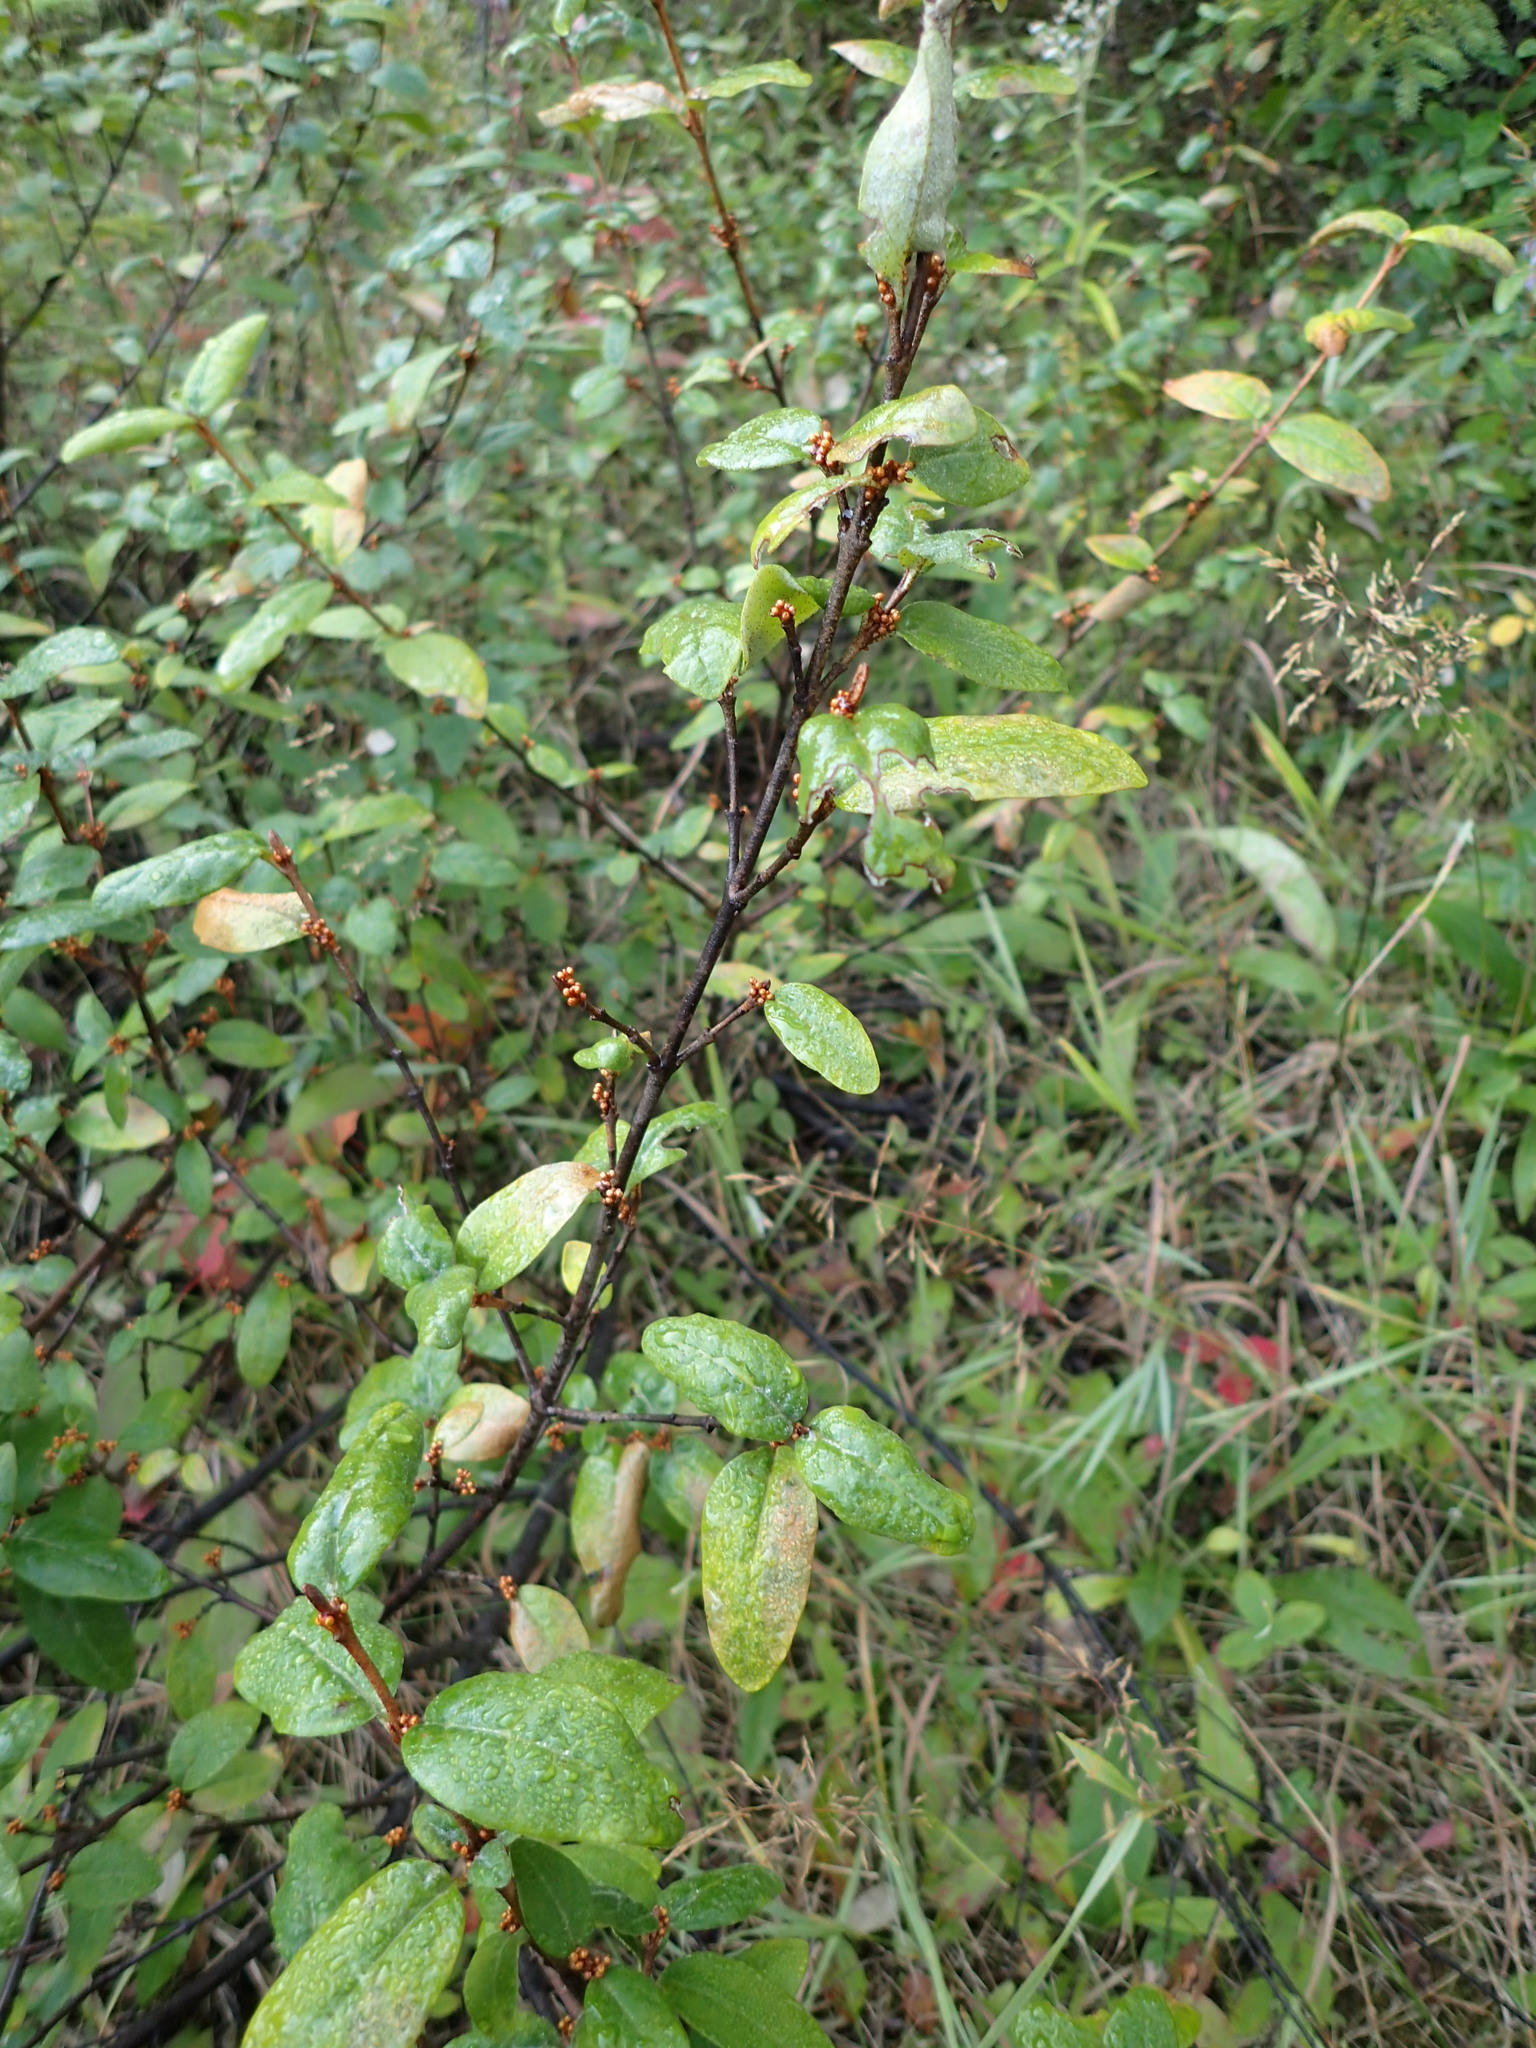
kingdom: Plantae
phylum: Tracheophyta
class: Magnoliopsida
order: Rosales
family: Elaeagnaceae
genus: Shepherdia
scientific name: Shepherdia canadensis
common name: Soapberry
